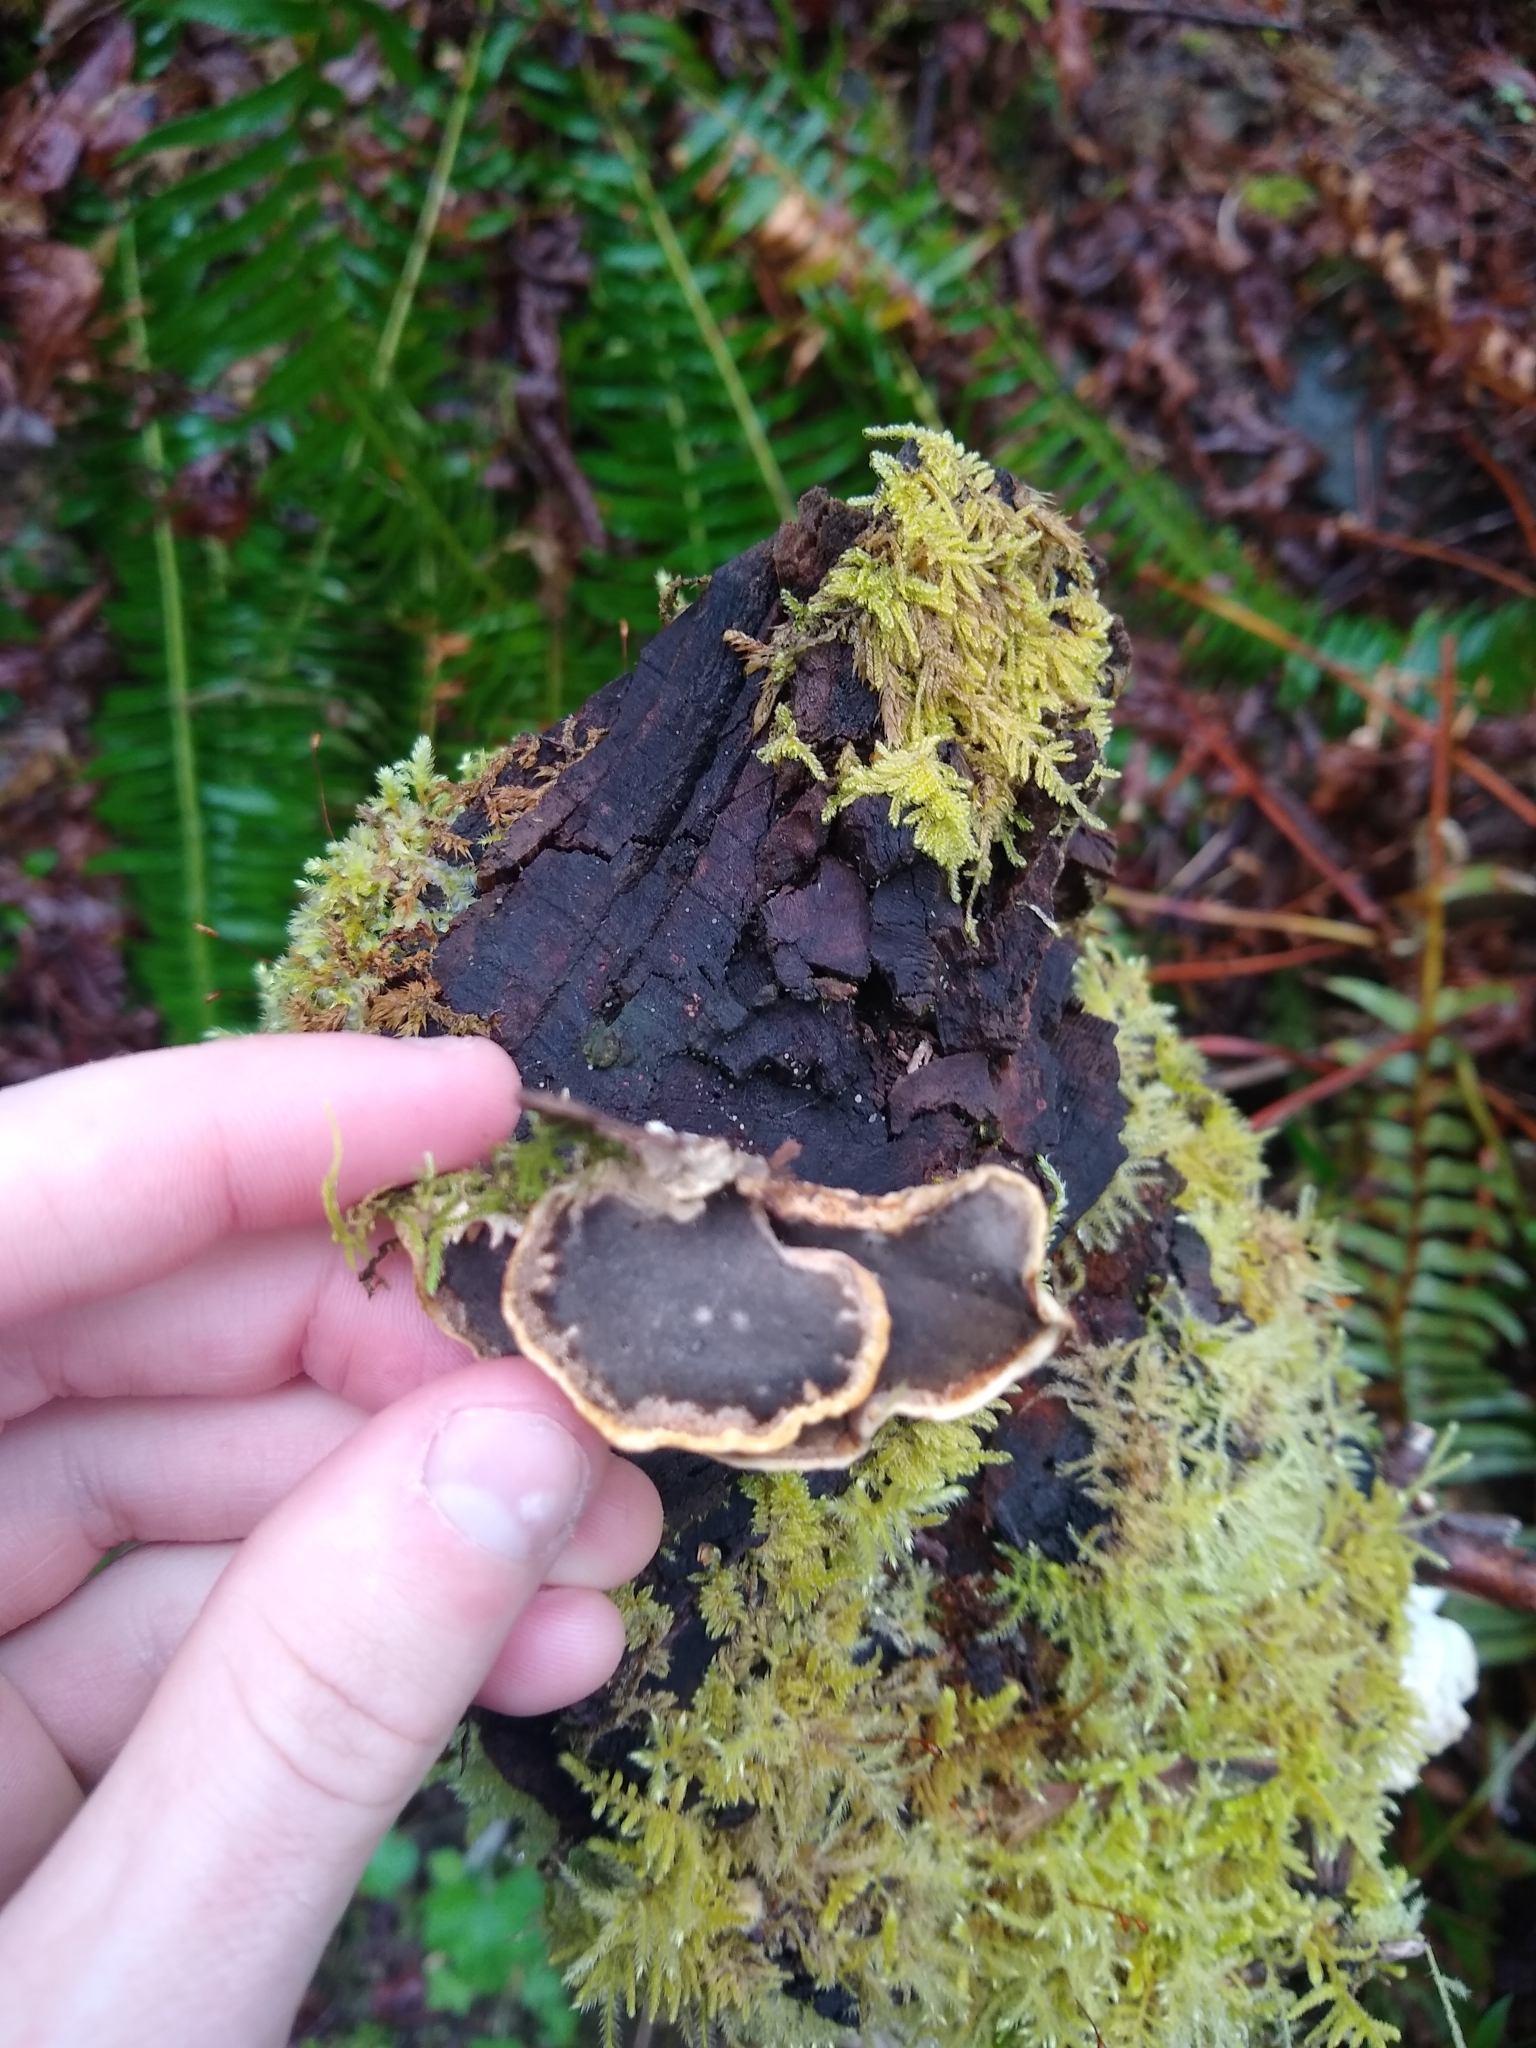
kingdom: Fungi
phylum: Basidiomycota
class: Agaricomycetes
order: Polyporales
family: Phanerochaetaceae
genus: Bjerkandera
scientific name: Bjerkandera adusta
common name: Smoky bracket
